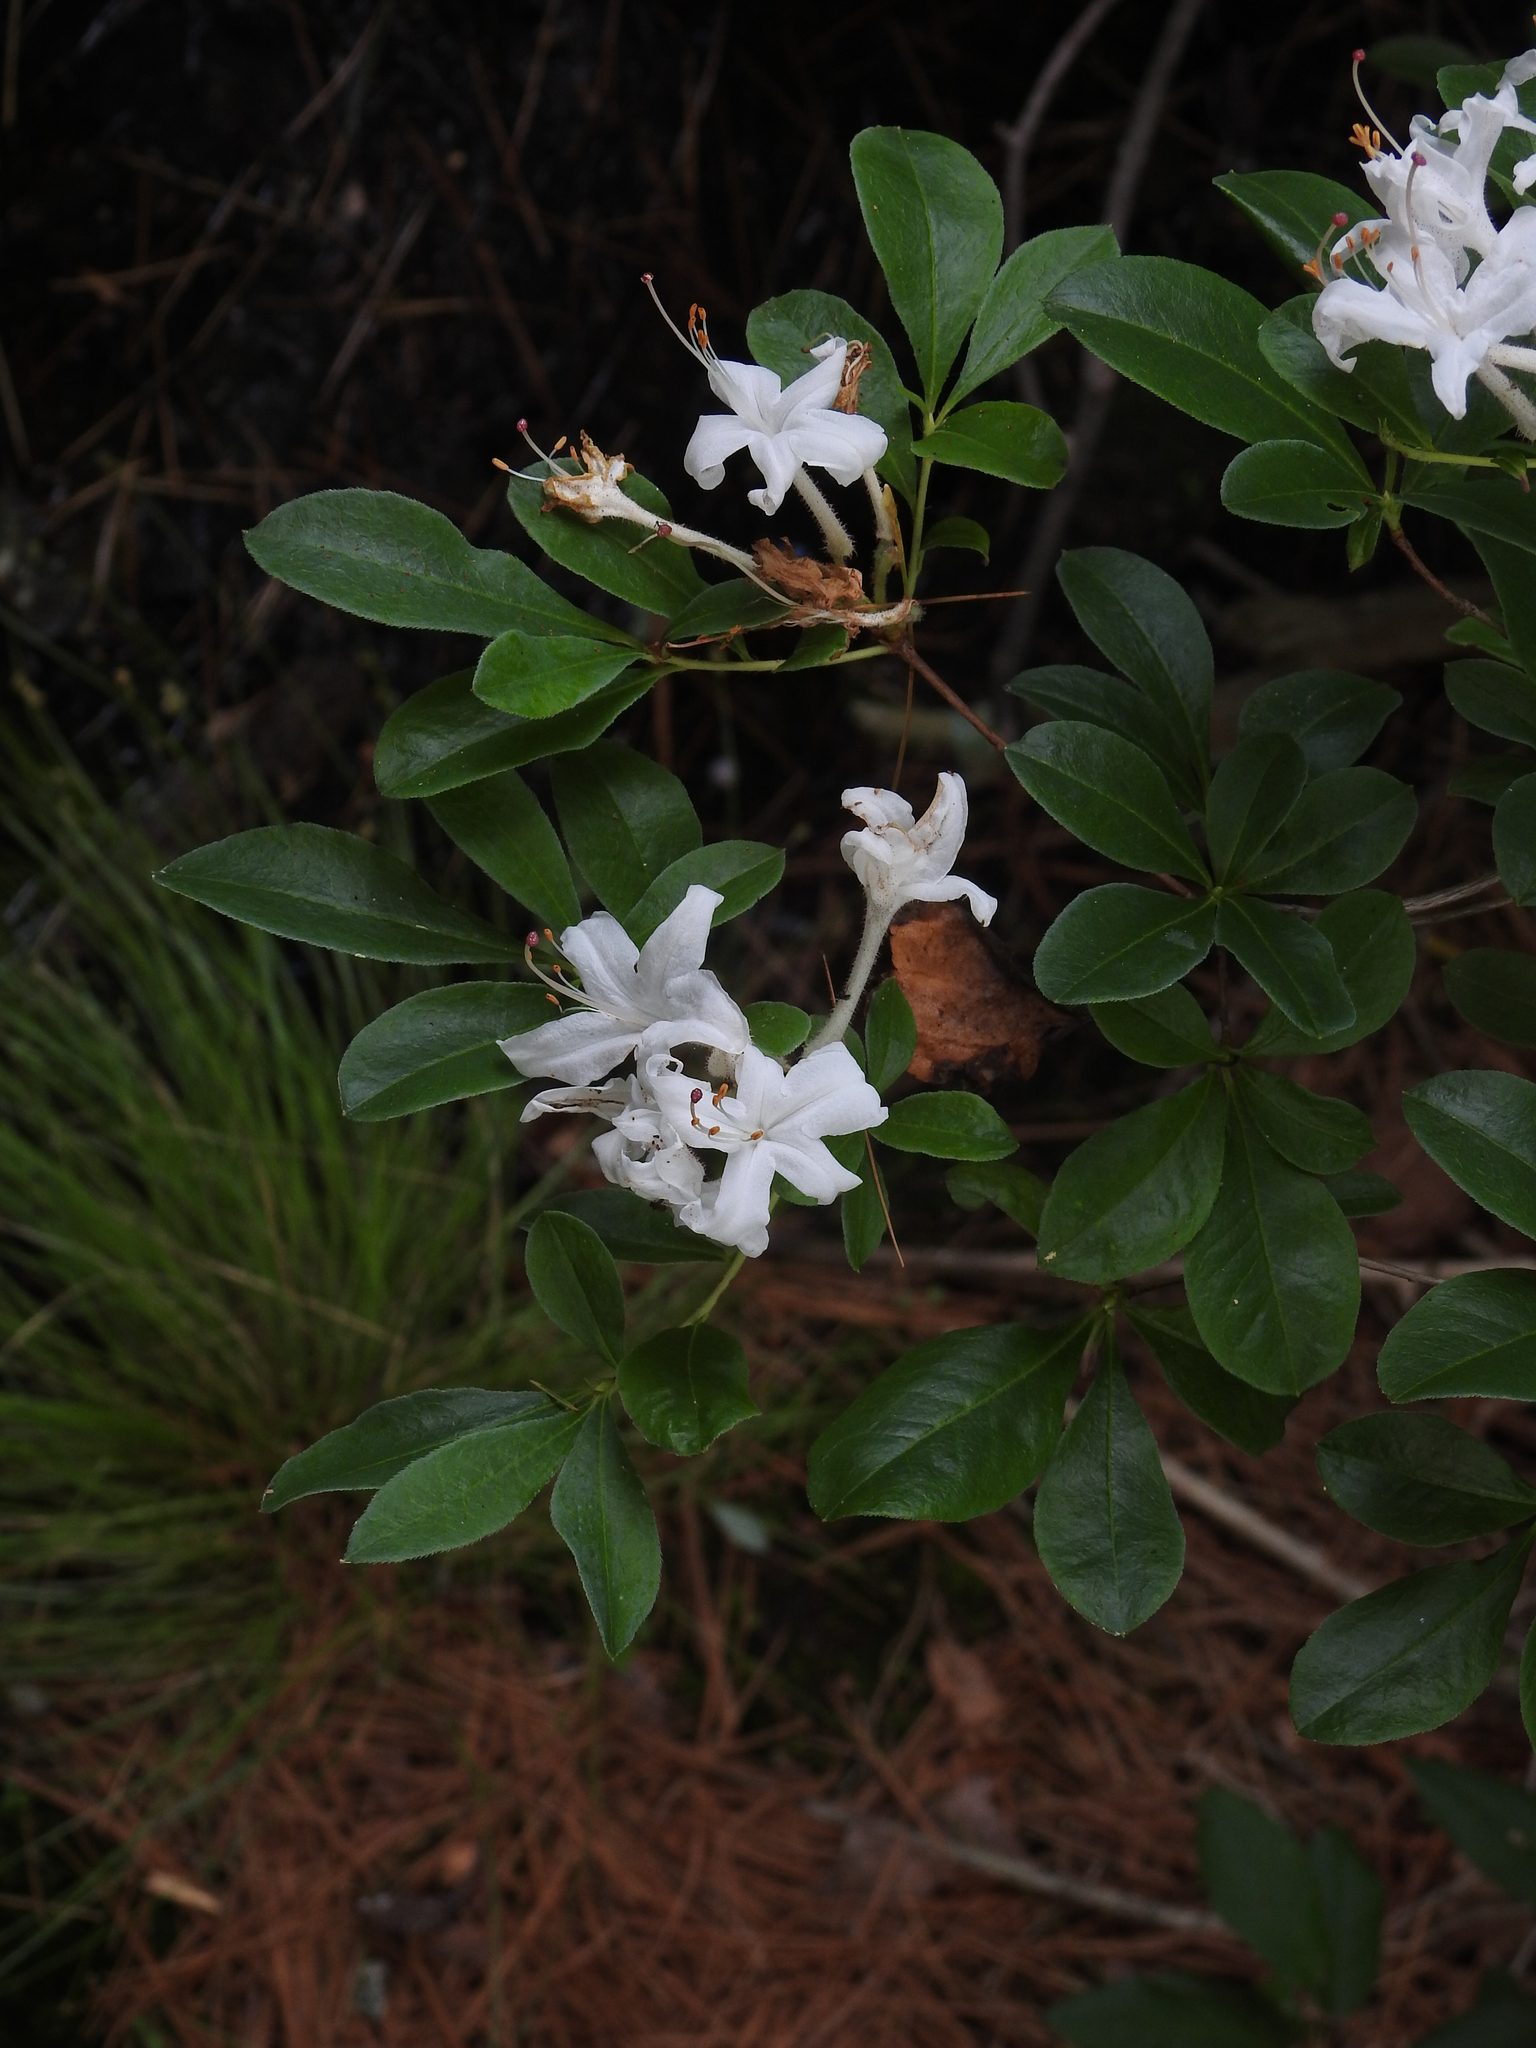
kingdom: Plantae
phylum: Tracheophyta
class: Magnoliopsida
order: Ericales
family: Ericaceae
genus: Rhododendron
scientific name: Rhododendron viscosum
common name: Clammy azalea
